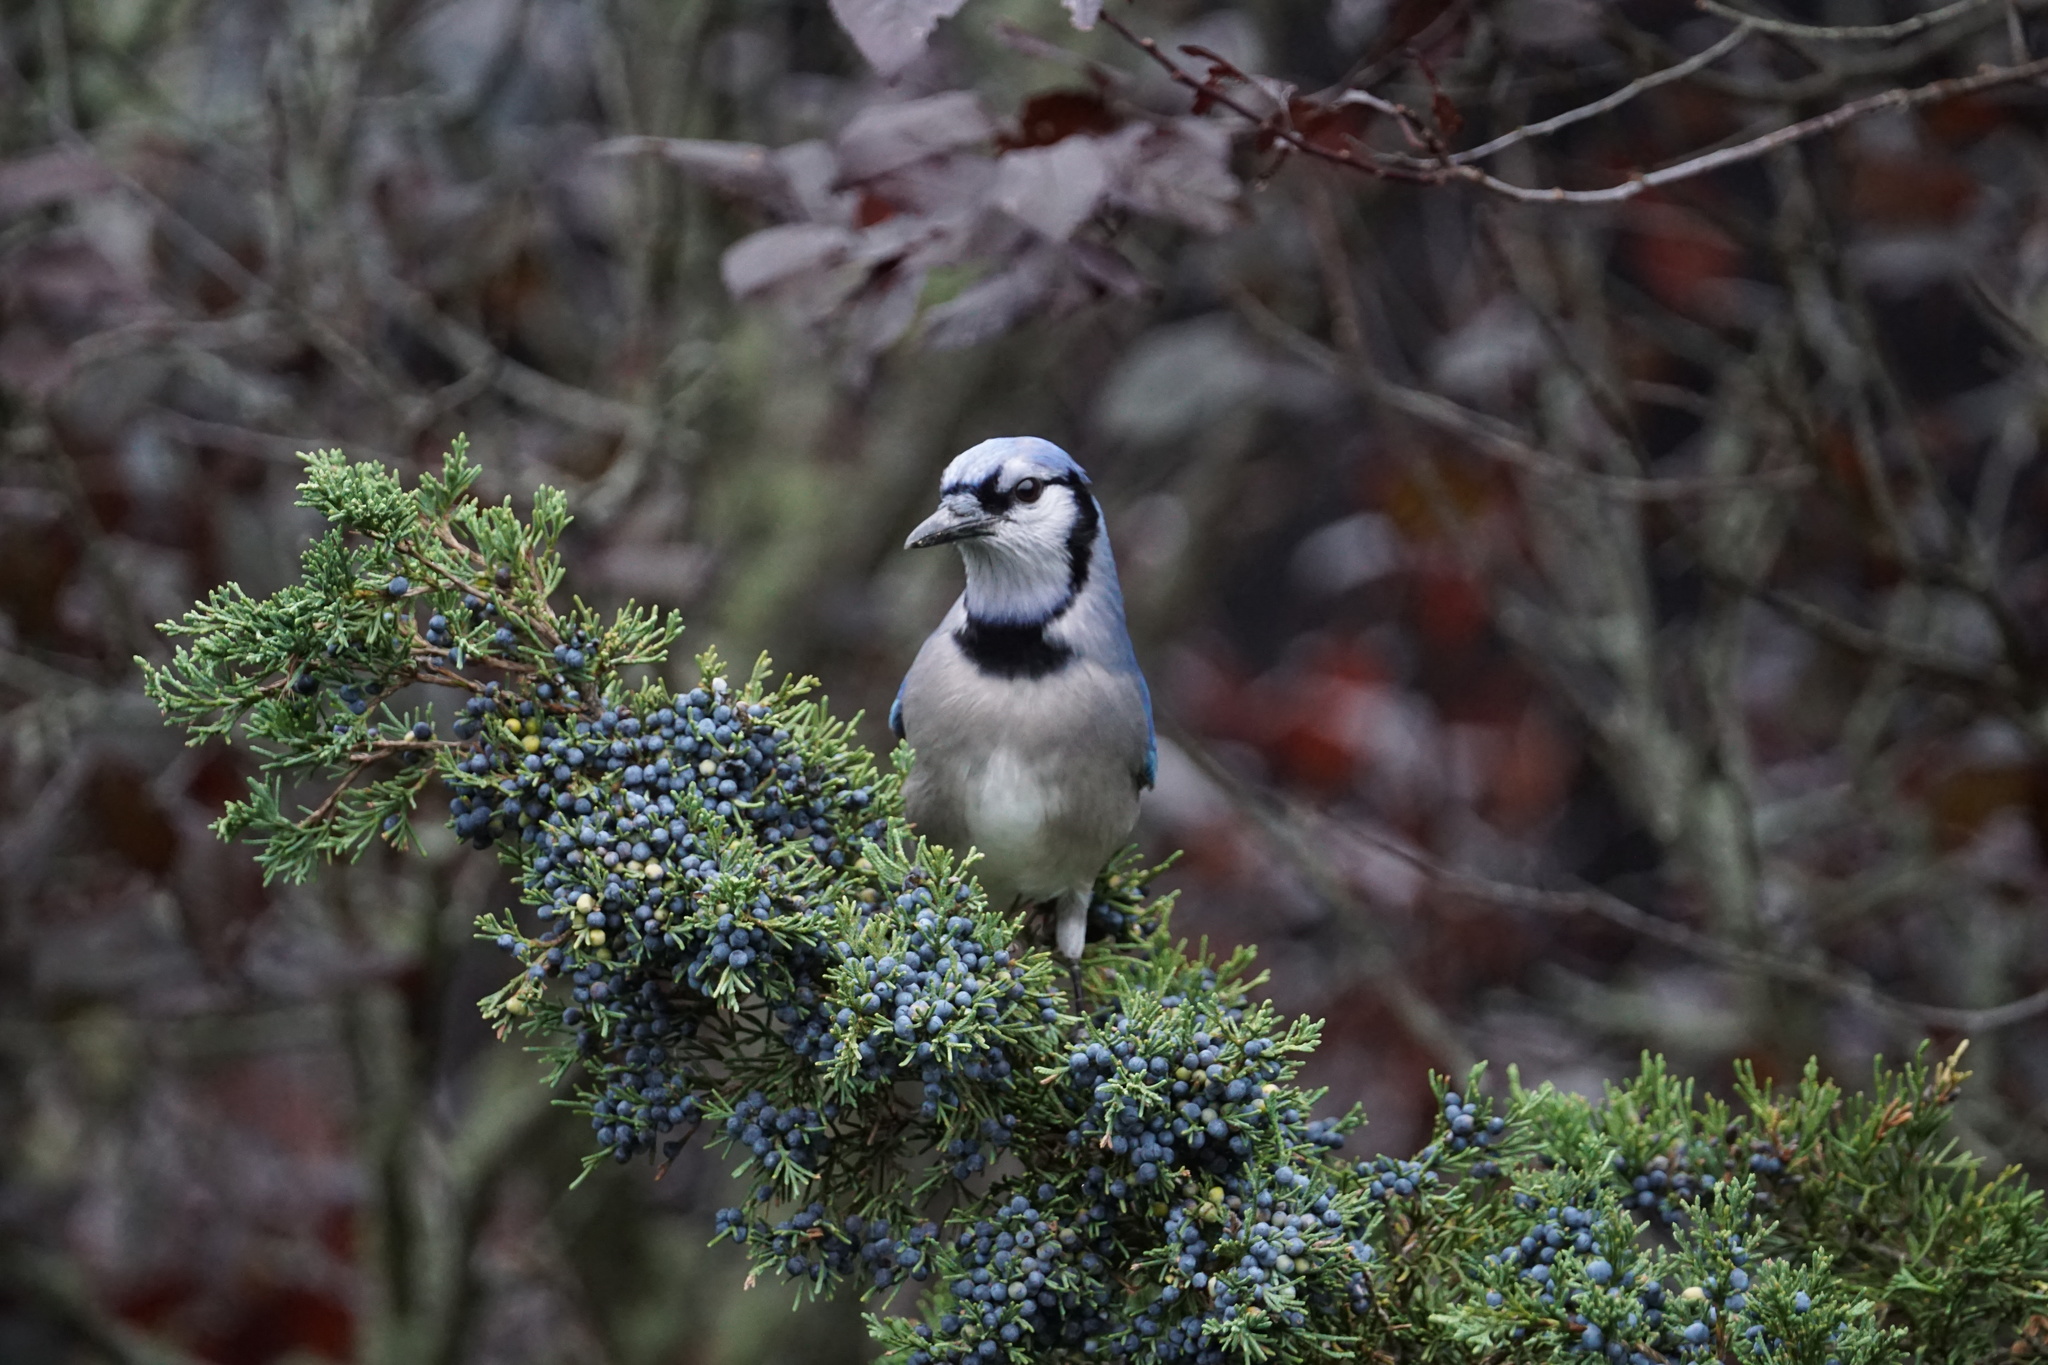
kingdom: Animalia
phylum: Chordata
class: Aves
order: Passeriformes
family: Corvidae
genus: Cyanocitta
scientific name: Cyanocitta cristata
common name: Blue jay
